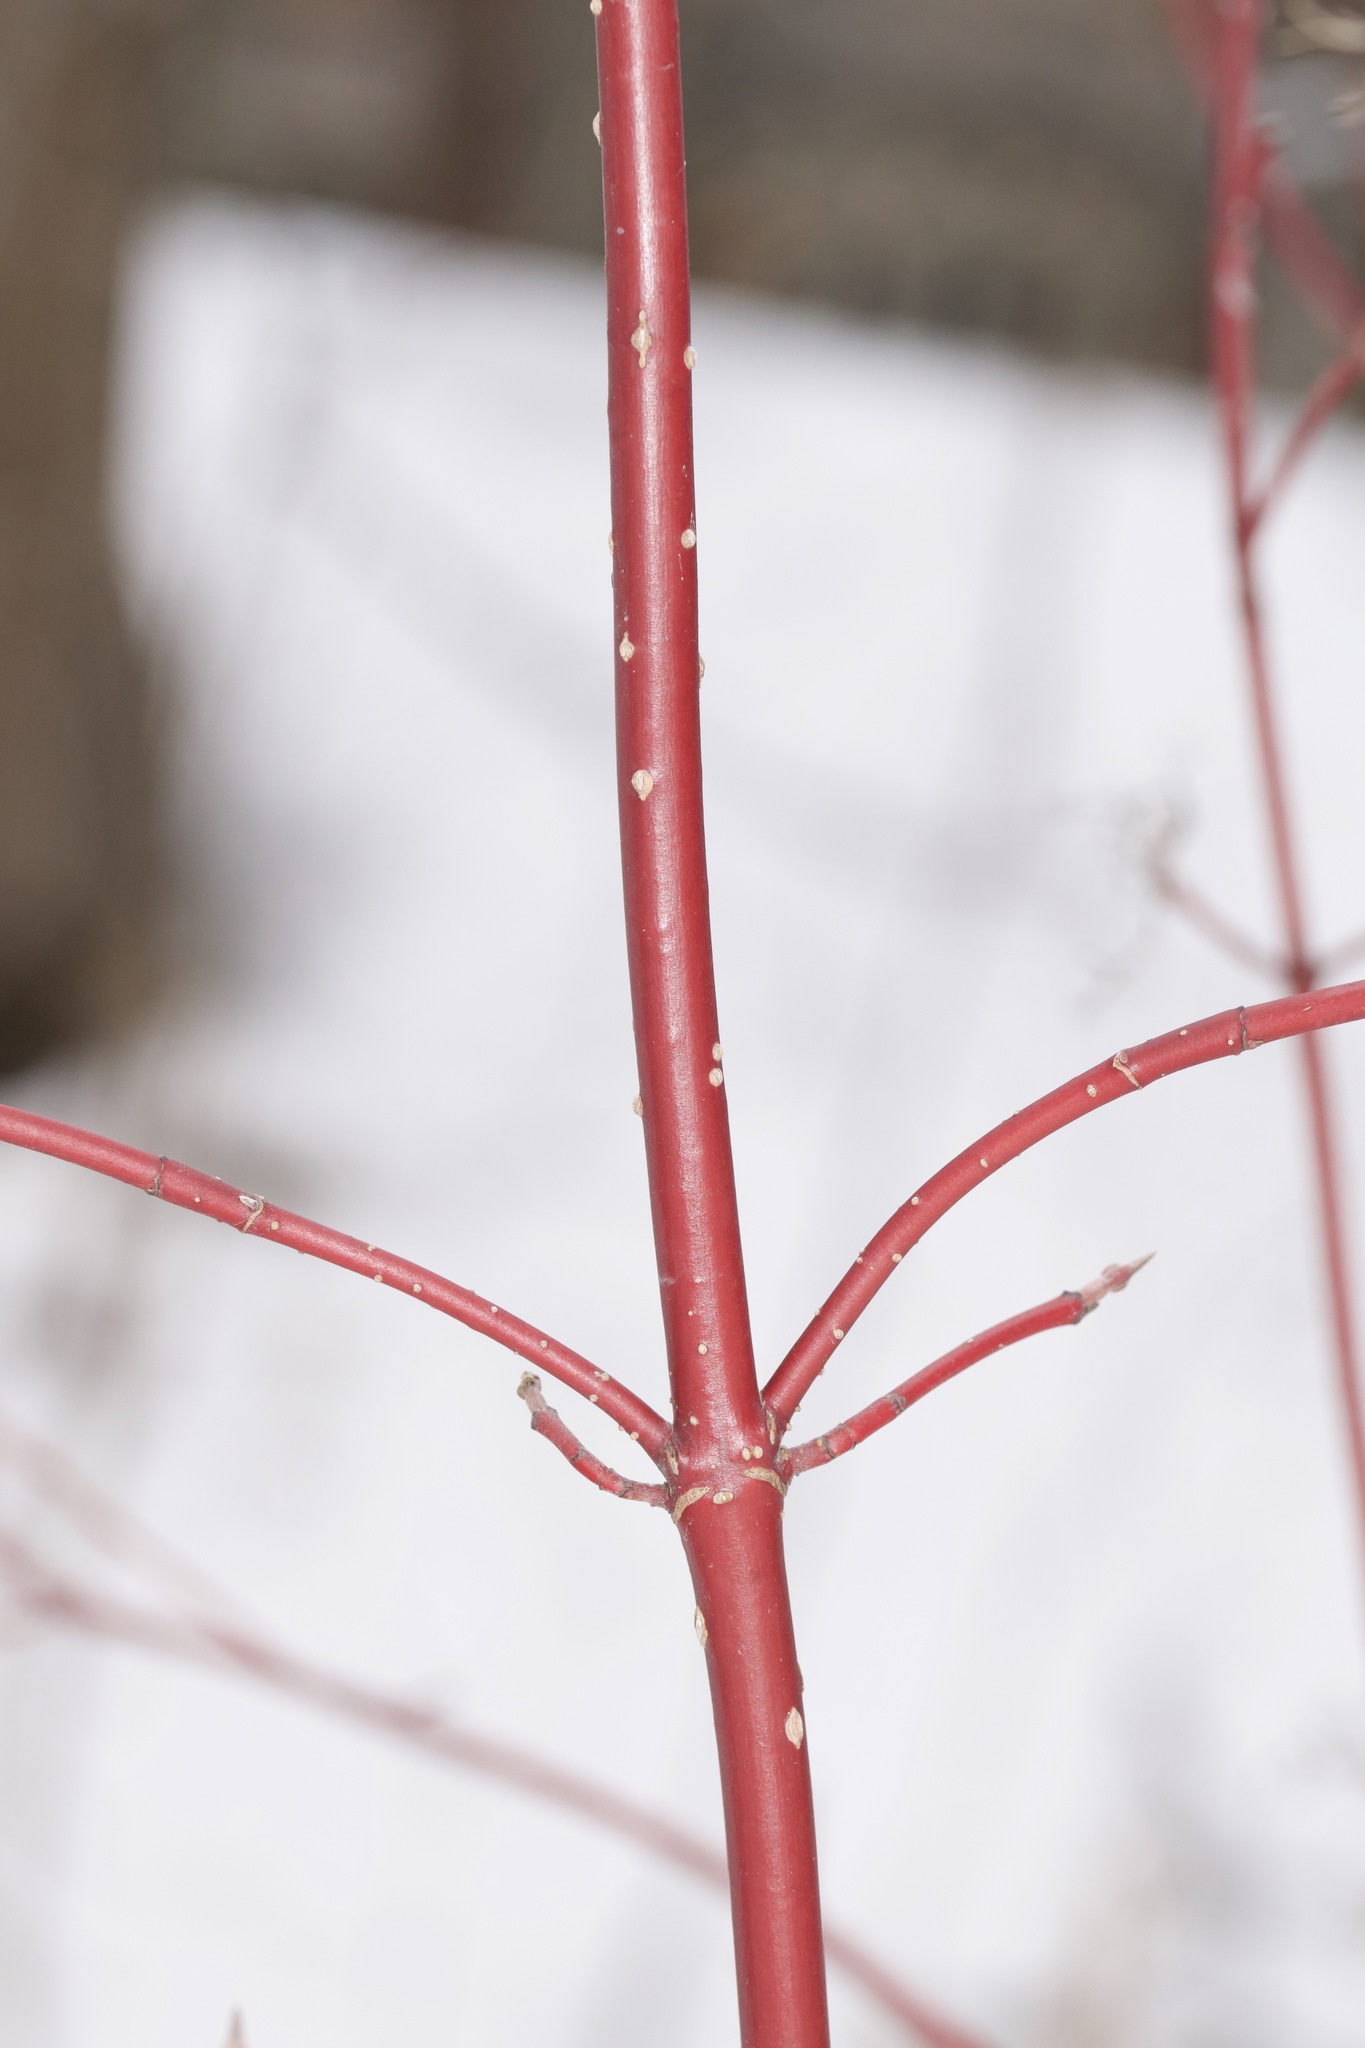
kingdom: Plantae
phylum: Tracheophyta
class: Magnoliopsida
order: Cornales
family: Cornaceae
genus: Cornus
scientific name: Cornus sericea
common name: Red-osier dogwood
